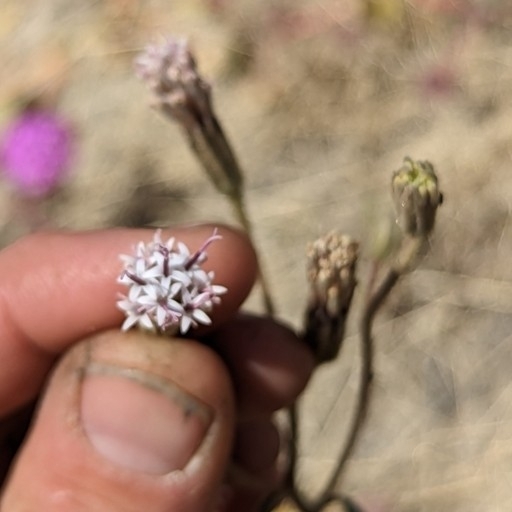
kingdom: Plantae
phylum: Tracheophyta
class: Magnoliopsida
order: Asterales
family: Asteraceae
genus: Palafoxia
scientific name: Palafoxia arida
